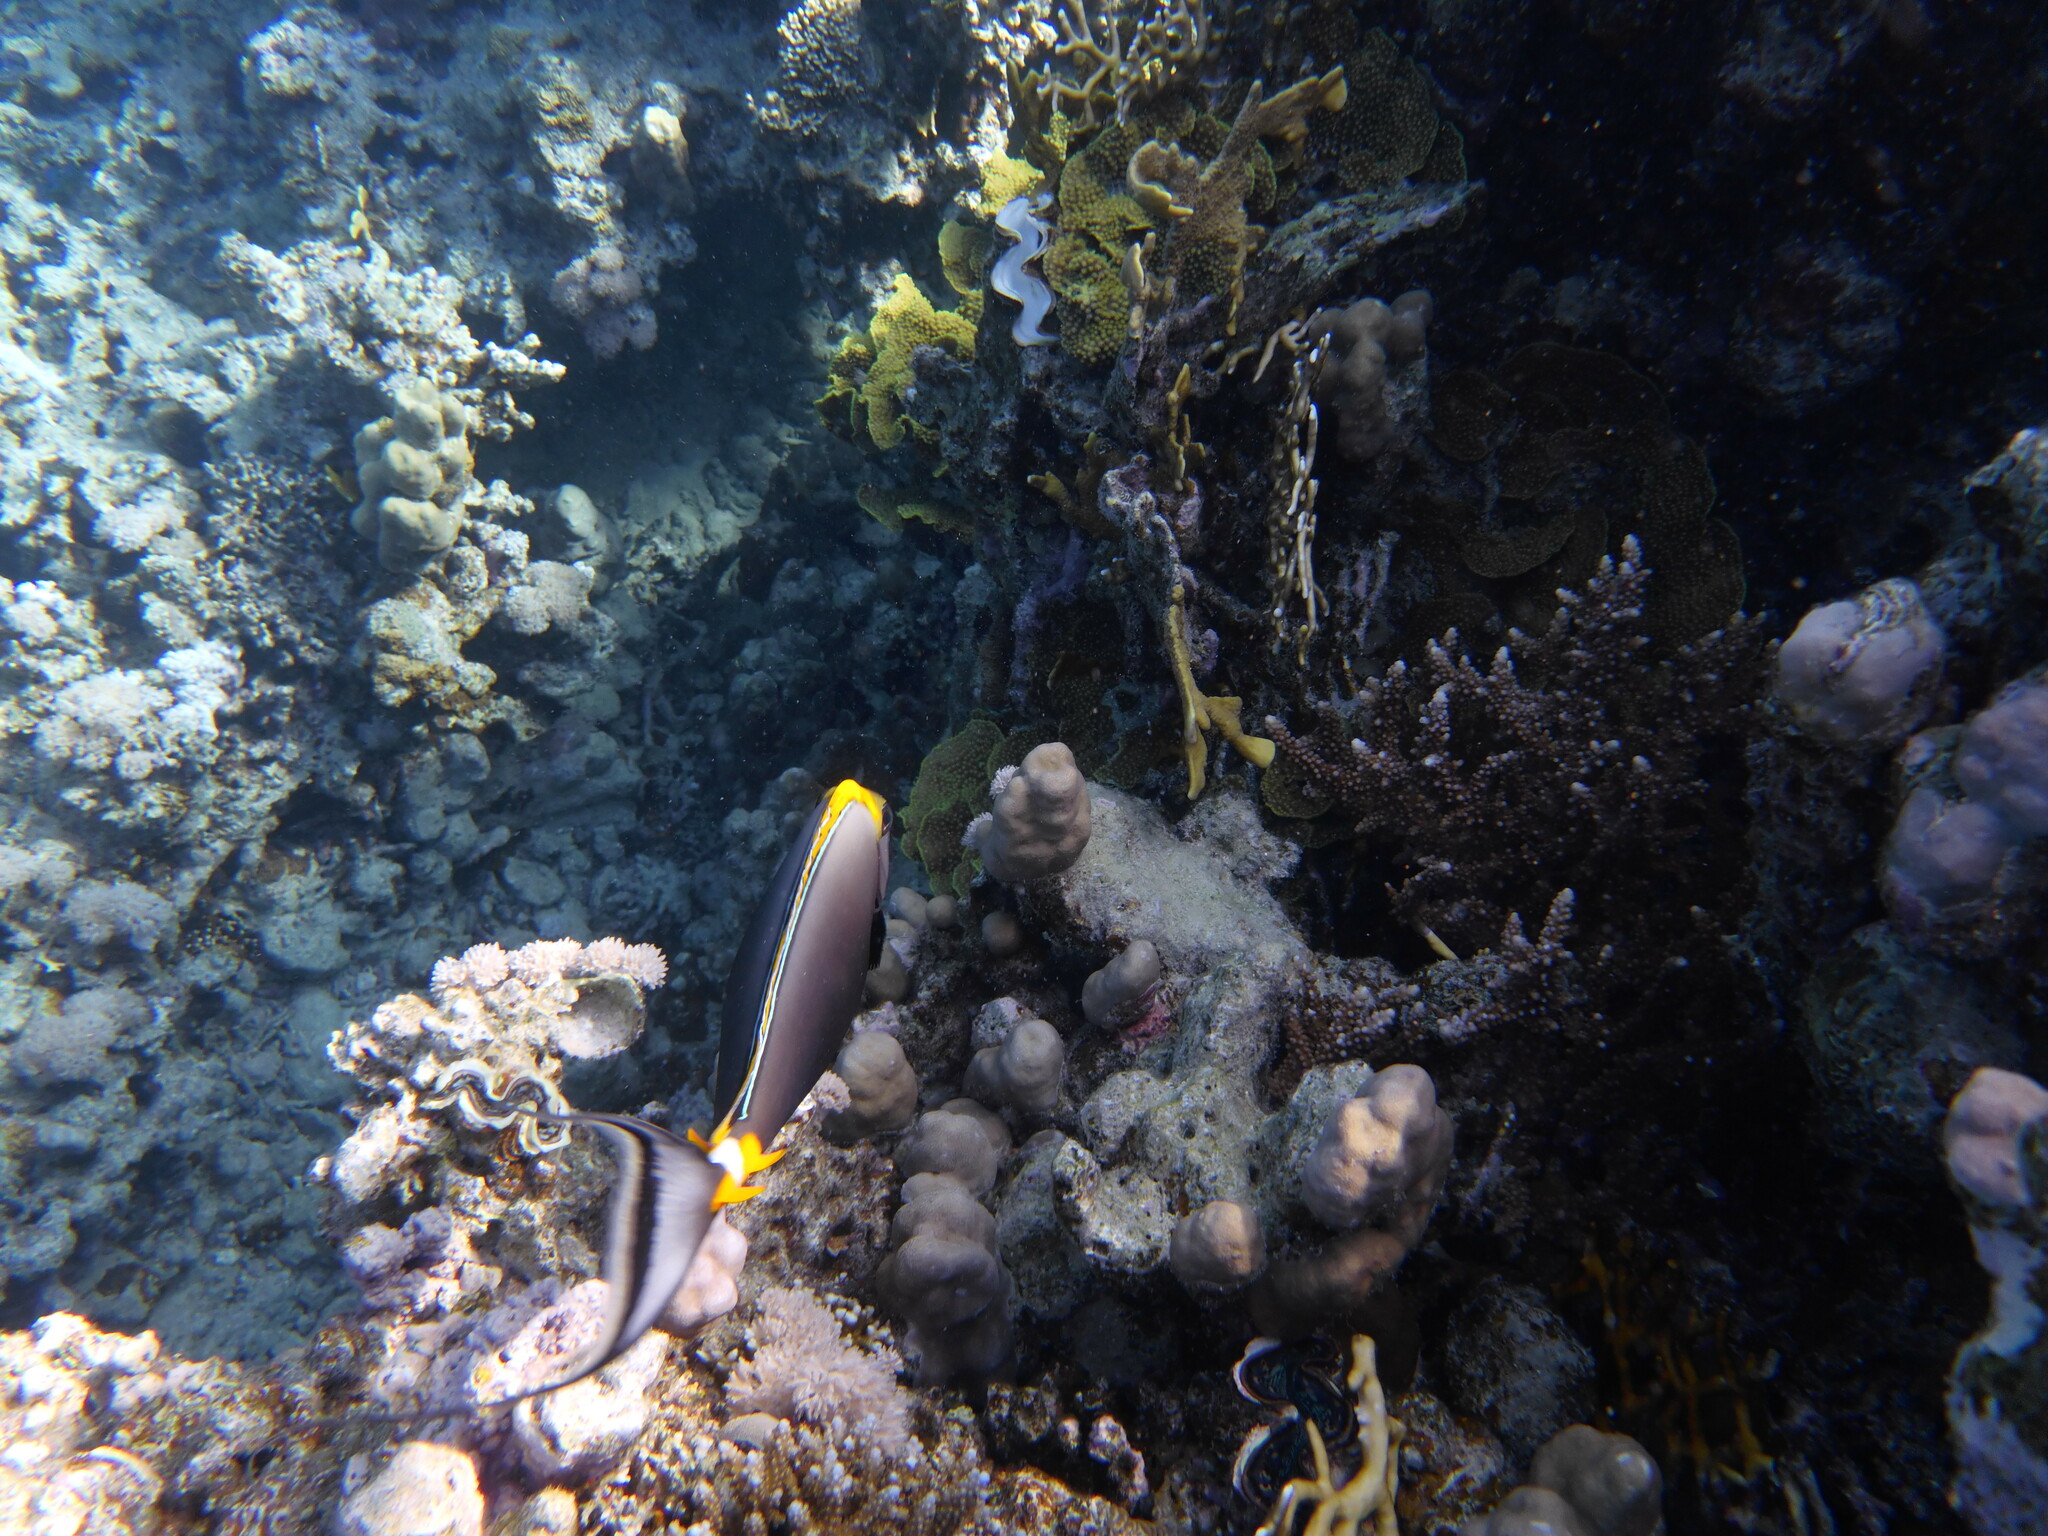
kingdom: Animalia
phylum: Chordata
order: Perciformes
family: Acanthuridae
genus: Naso
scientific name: Naso elegans
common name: Orangespine unicornfish
